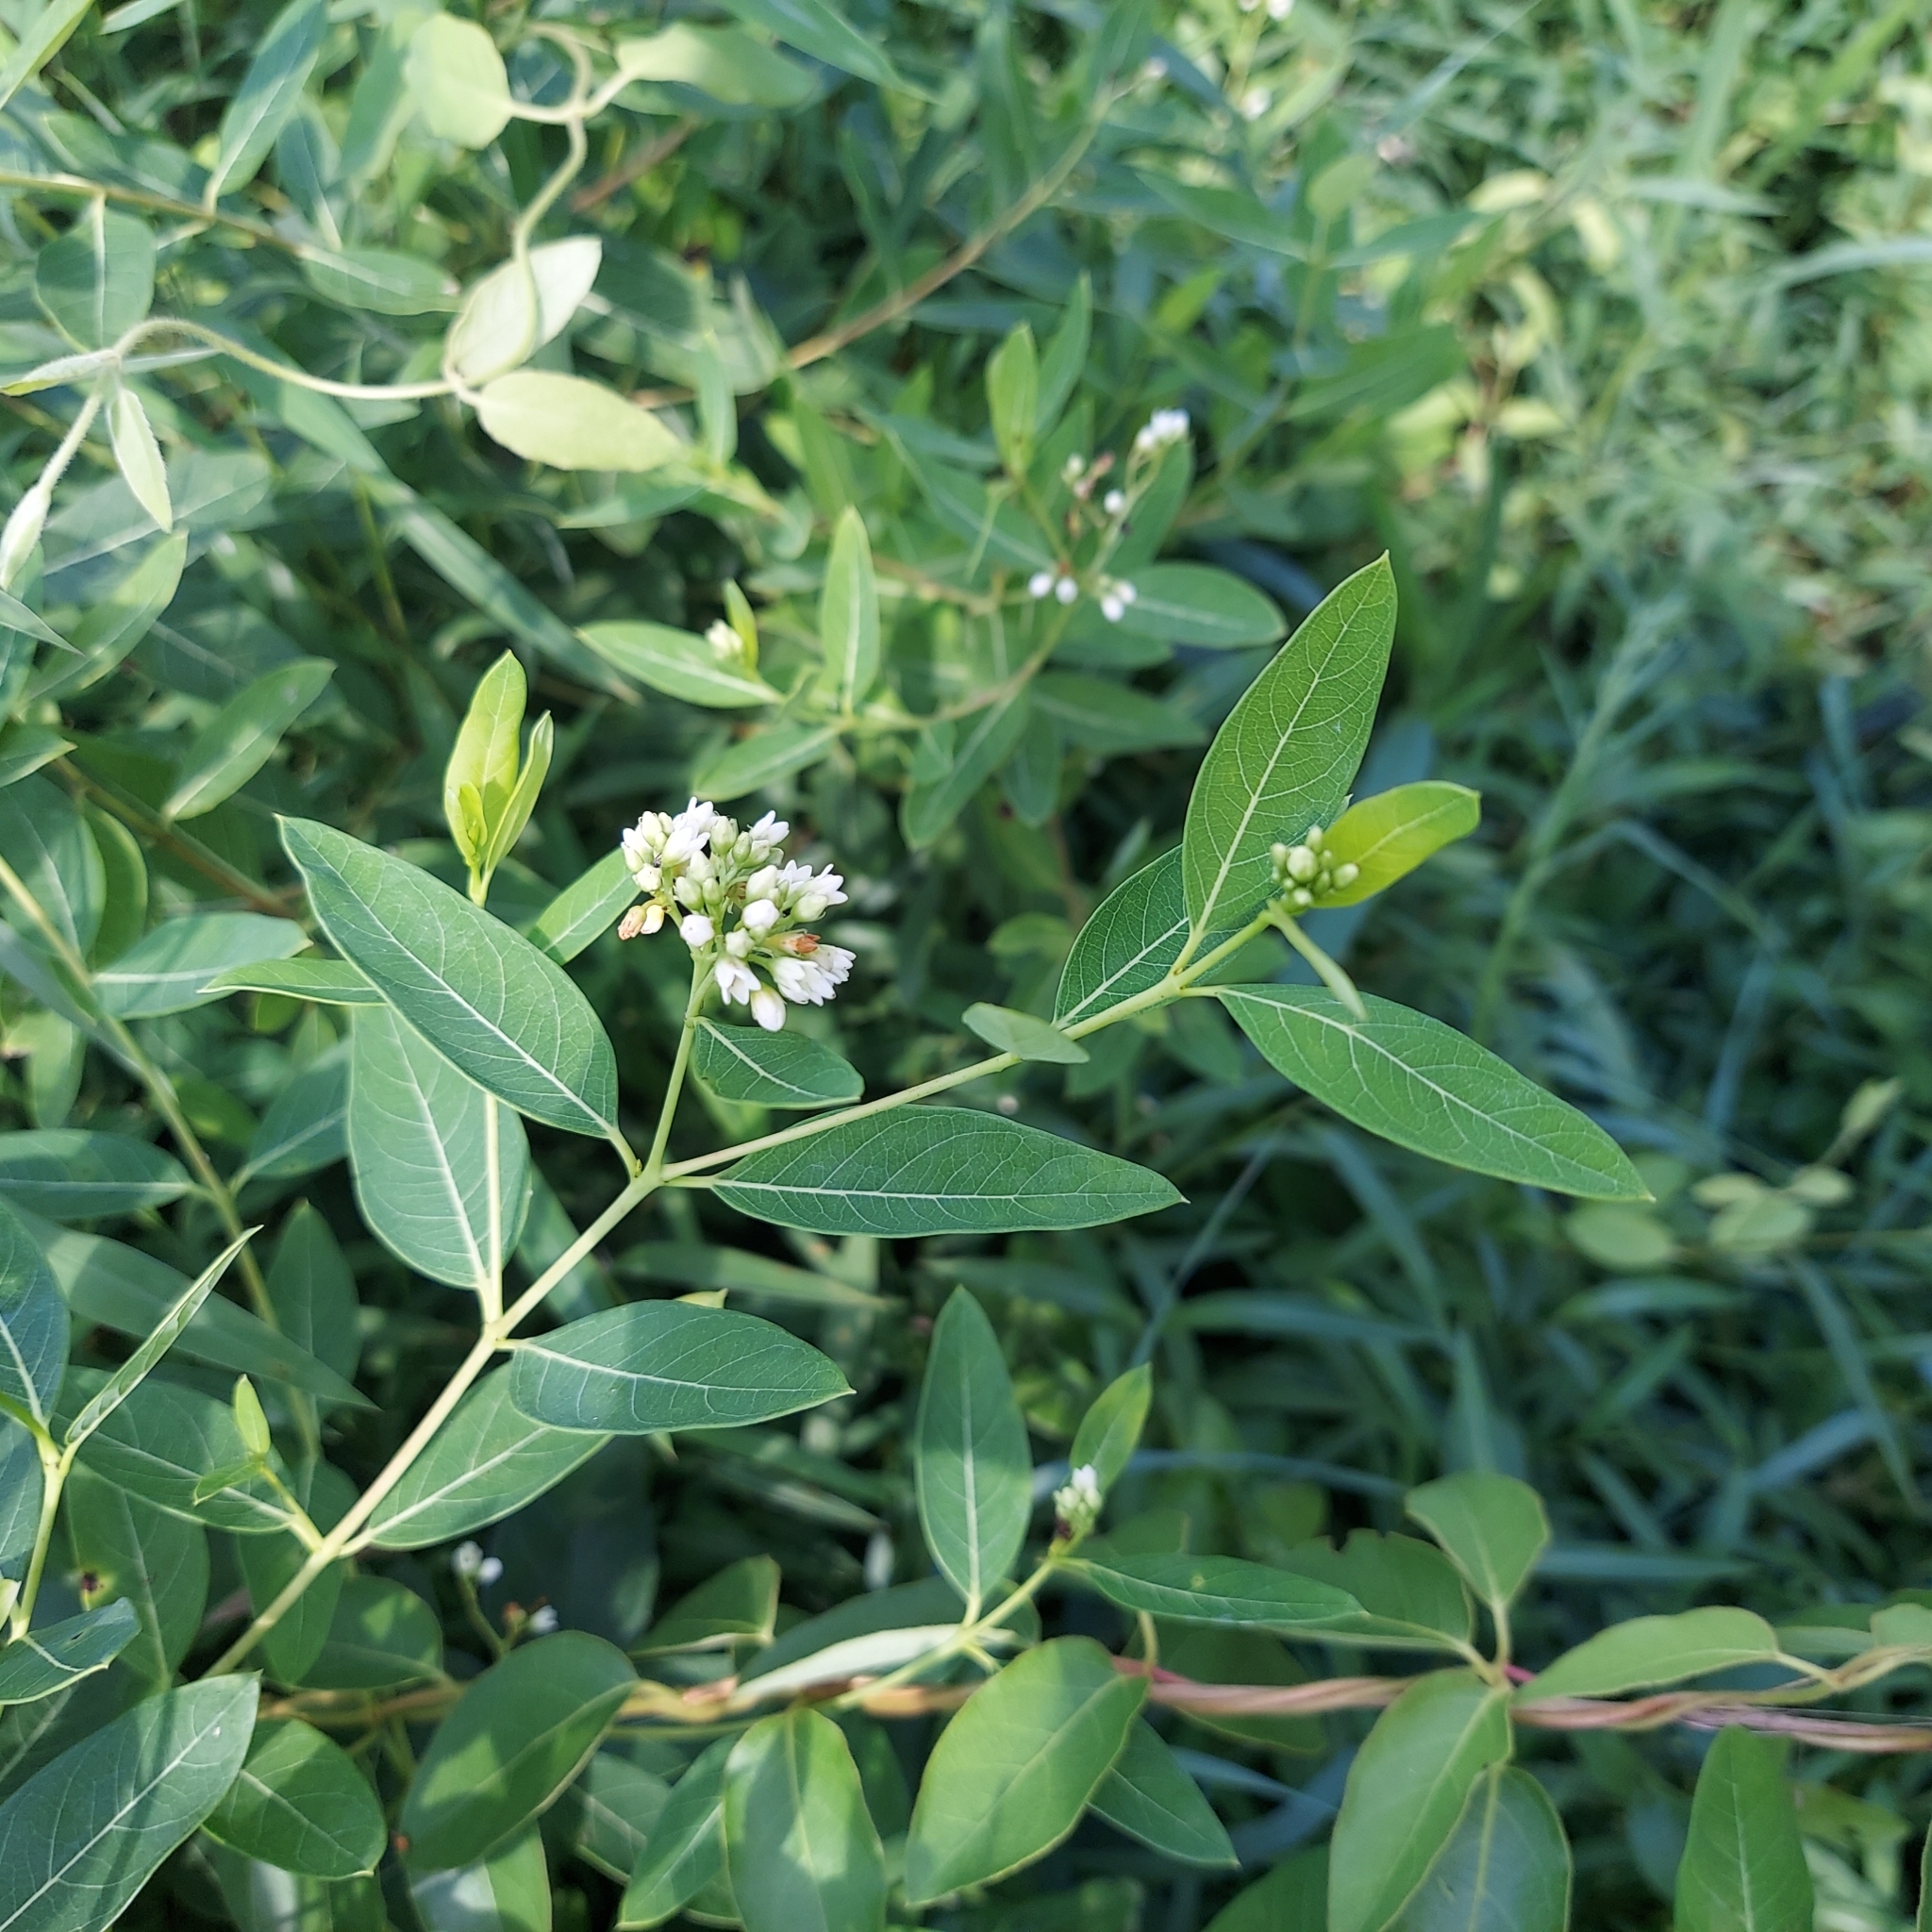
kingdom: Plantae
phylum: Tracheophyta
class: Magnoliopsida
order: Gentianales
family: Apocynaceae
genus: Apocynum
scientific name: Apocynum cannabinum
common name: Hemp dogbane
